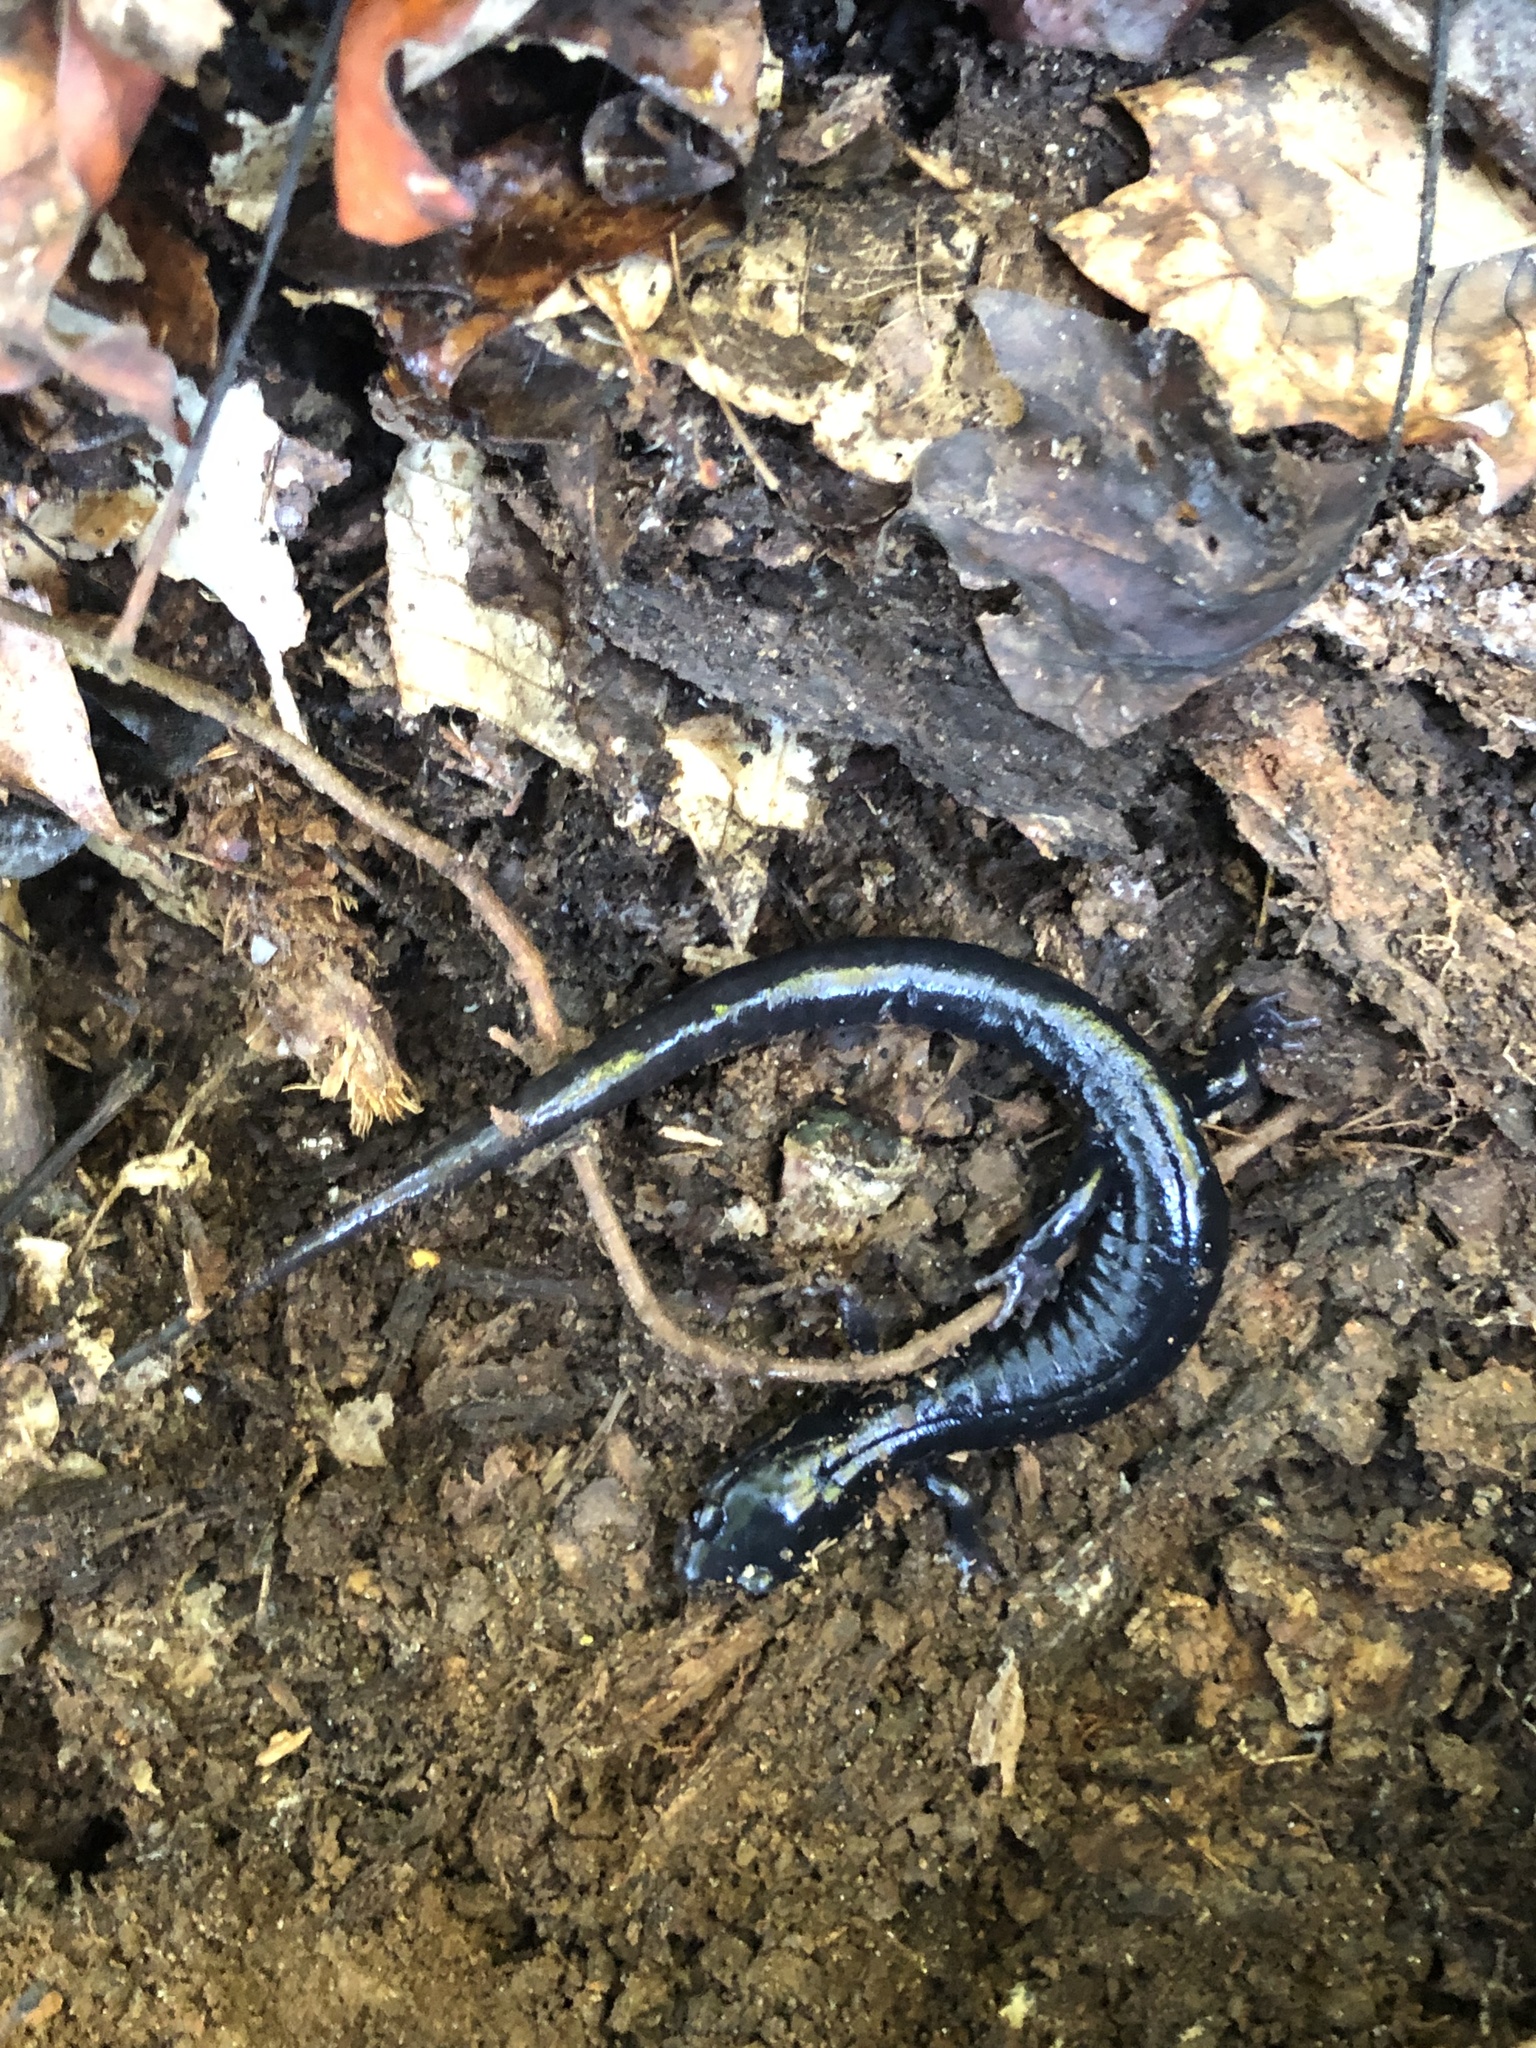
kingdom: Animalia
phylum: Chordata
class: Amphibia
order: Caudata
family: Plethodontidae
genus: Plethodon
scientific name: Plethodon glutinosus
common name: Northern slimy salamander
